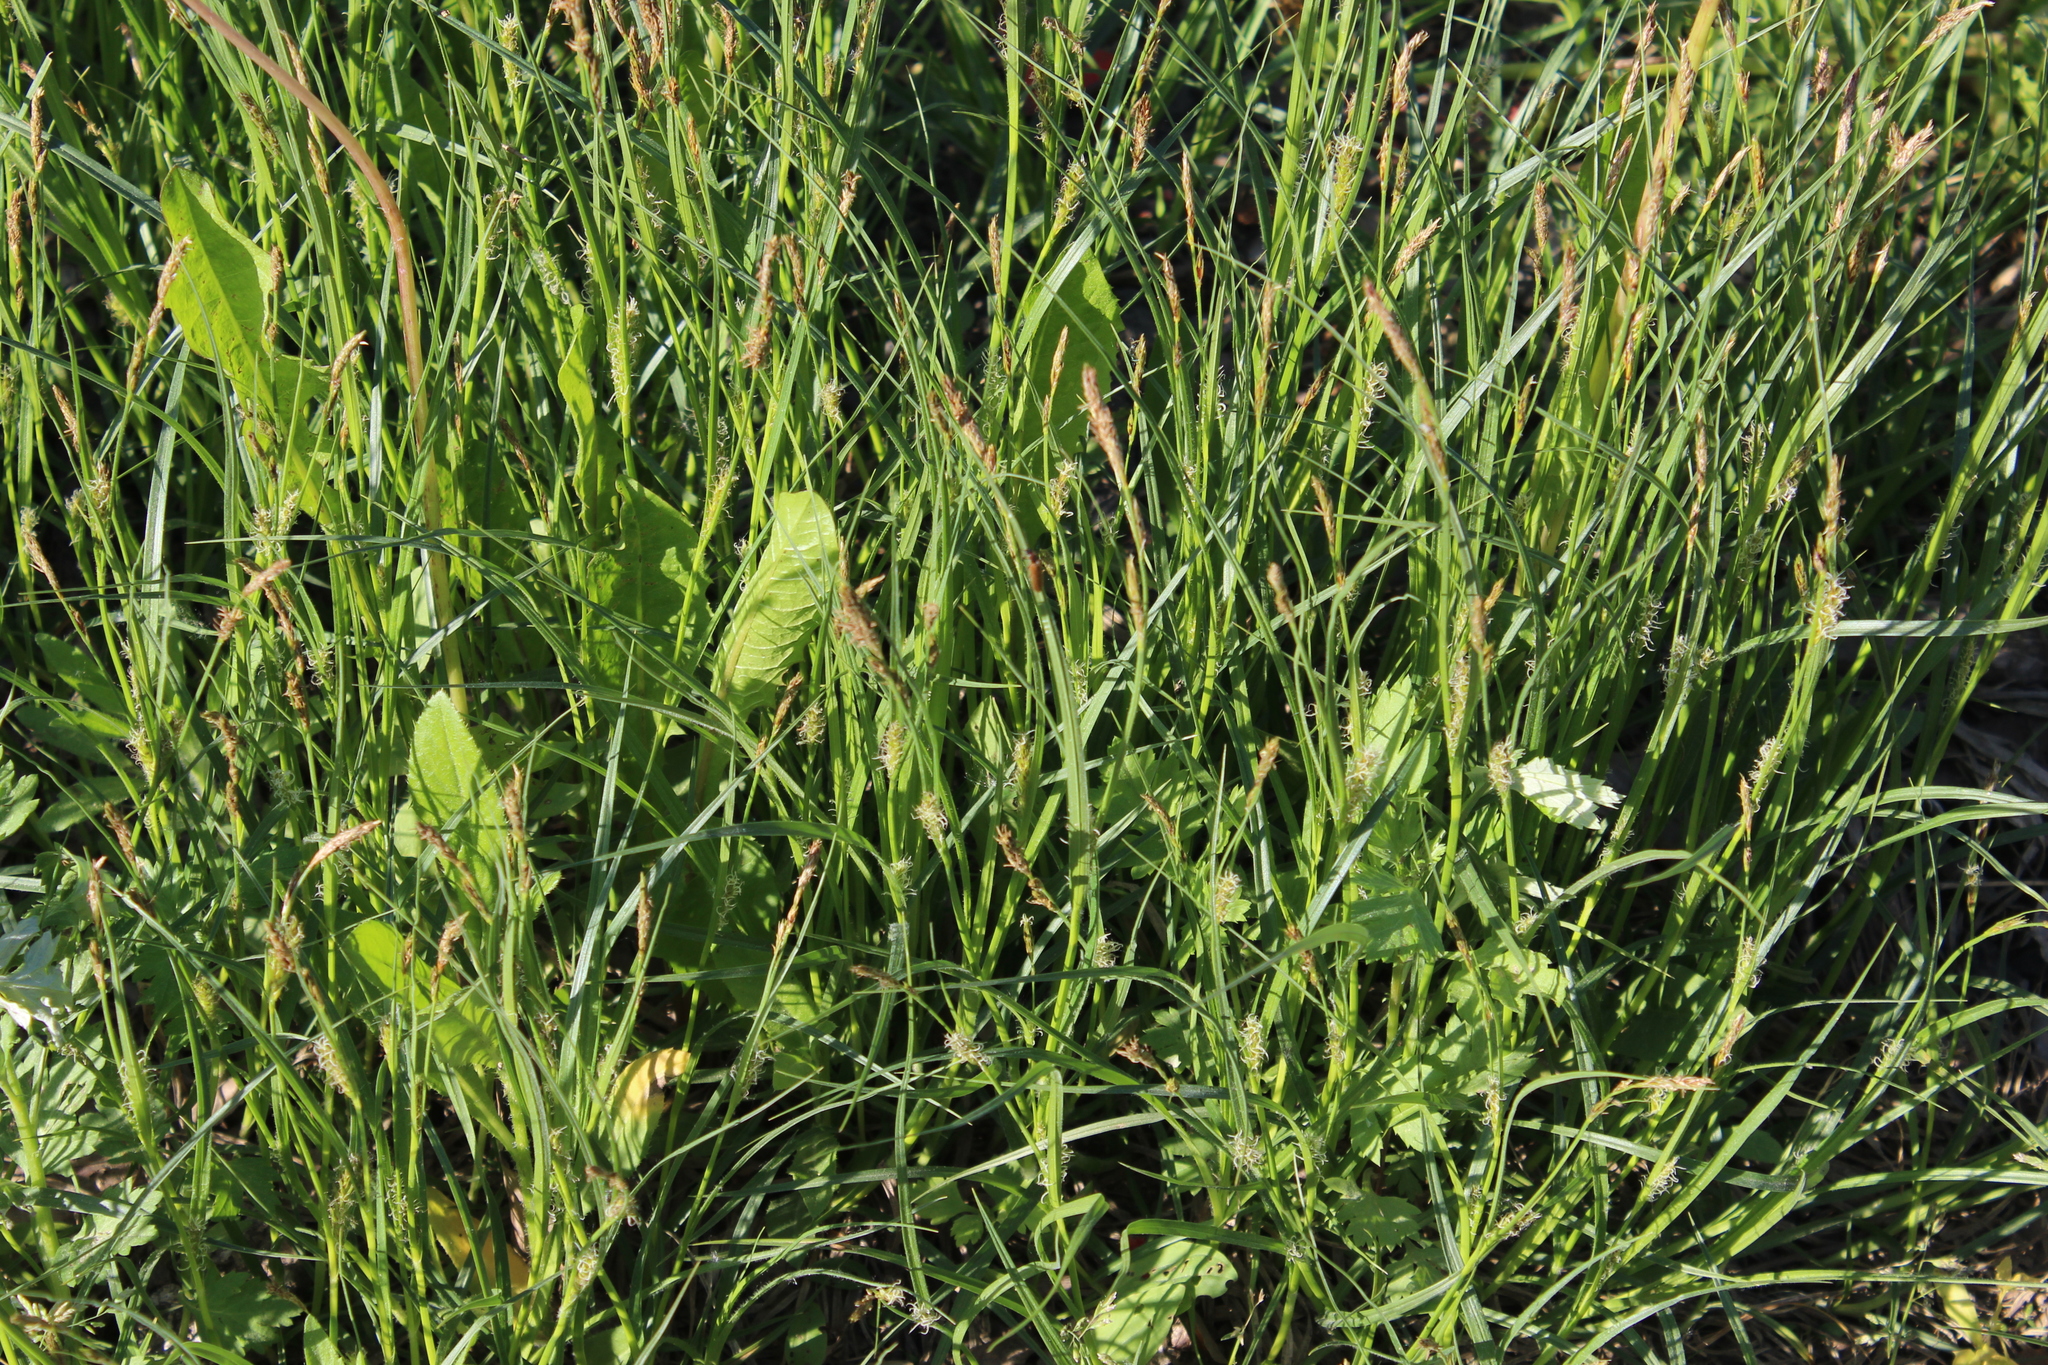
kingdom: Plantae
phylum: Tracheophyta
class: Liliopsida
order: Poales
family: Cyperaceae
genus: Carex
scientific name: Carex hirta
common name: Hairy sedge
